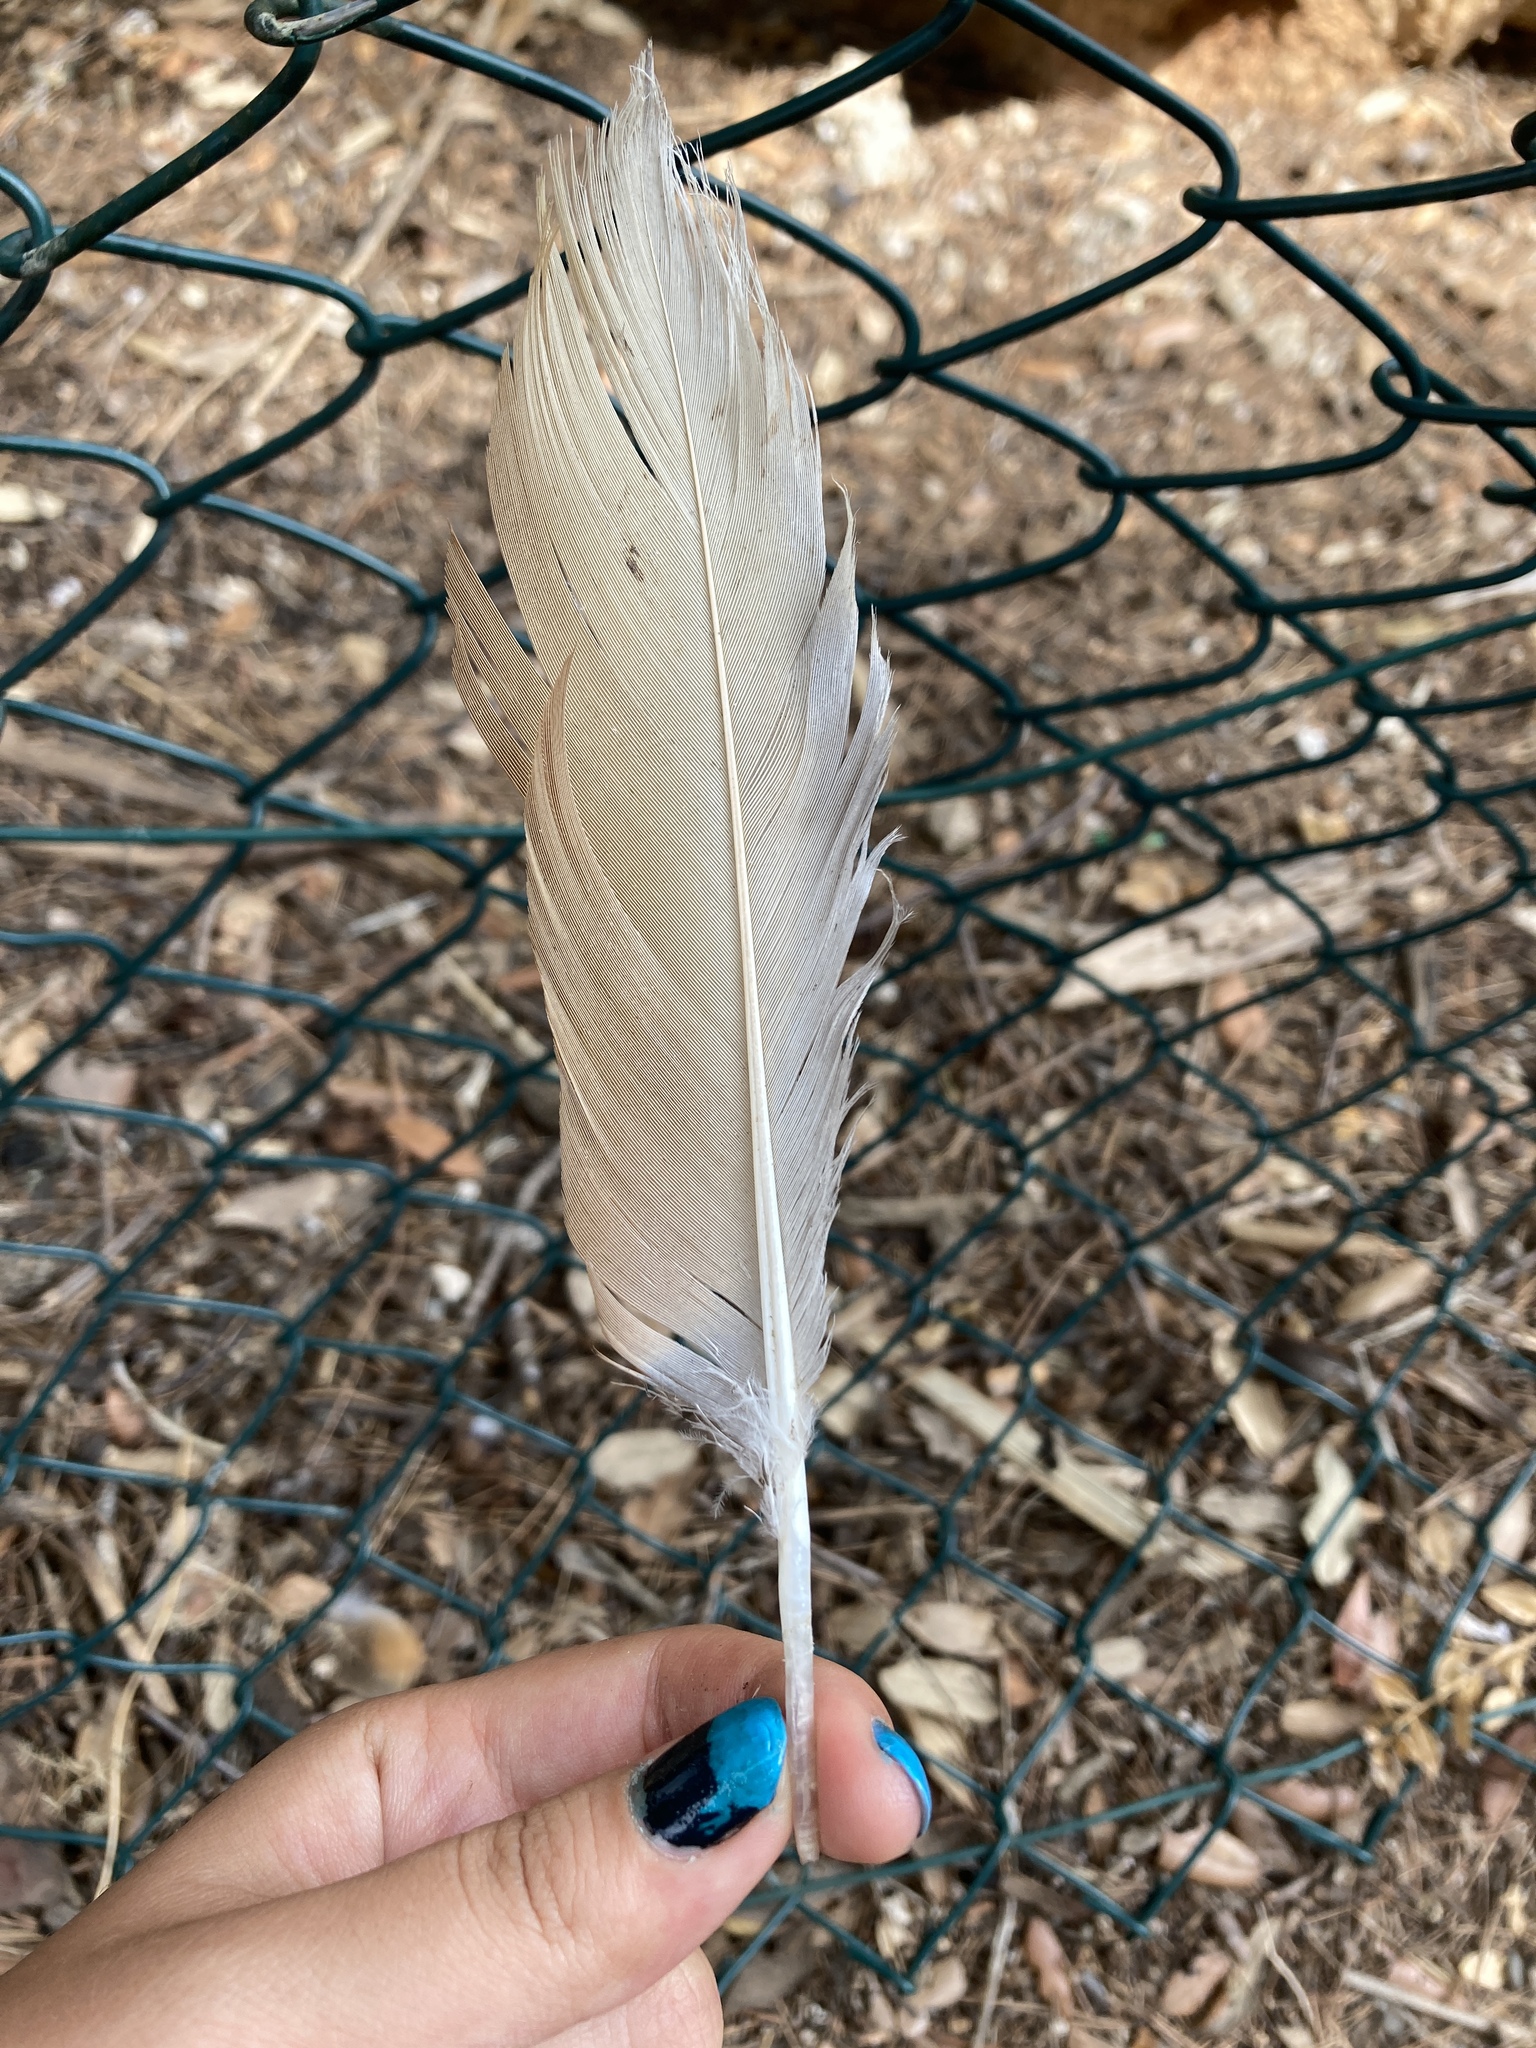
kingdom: Animalia
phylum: Chordata
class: Aves
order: Anseriformes
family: Anatidae
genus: Tadorna
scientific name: Tadorna ferruginea
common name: Ruddy shelduck
